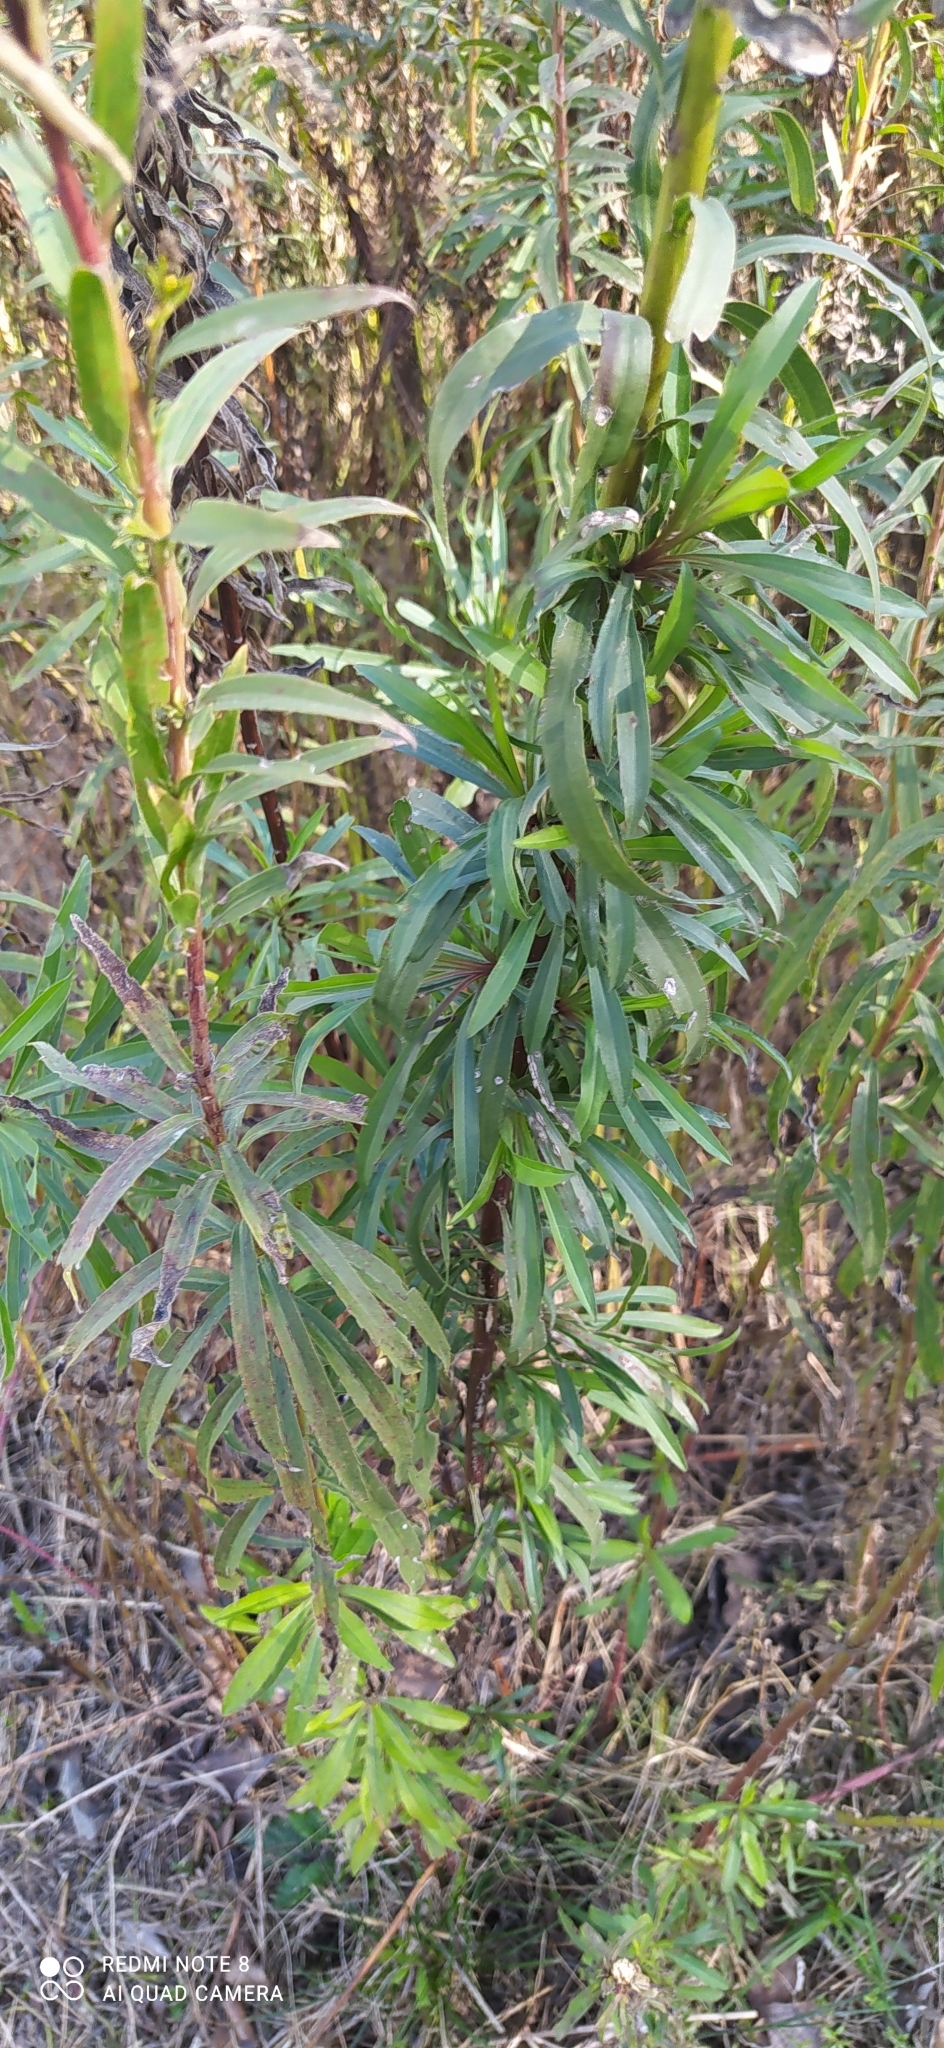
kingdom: Plantae
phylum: Tracheophyta
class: Magnoliopsida
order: Asterales
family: Asteraceae
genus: Solidago
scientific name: Solidago chilensis
